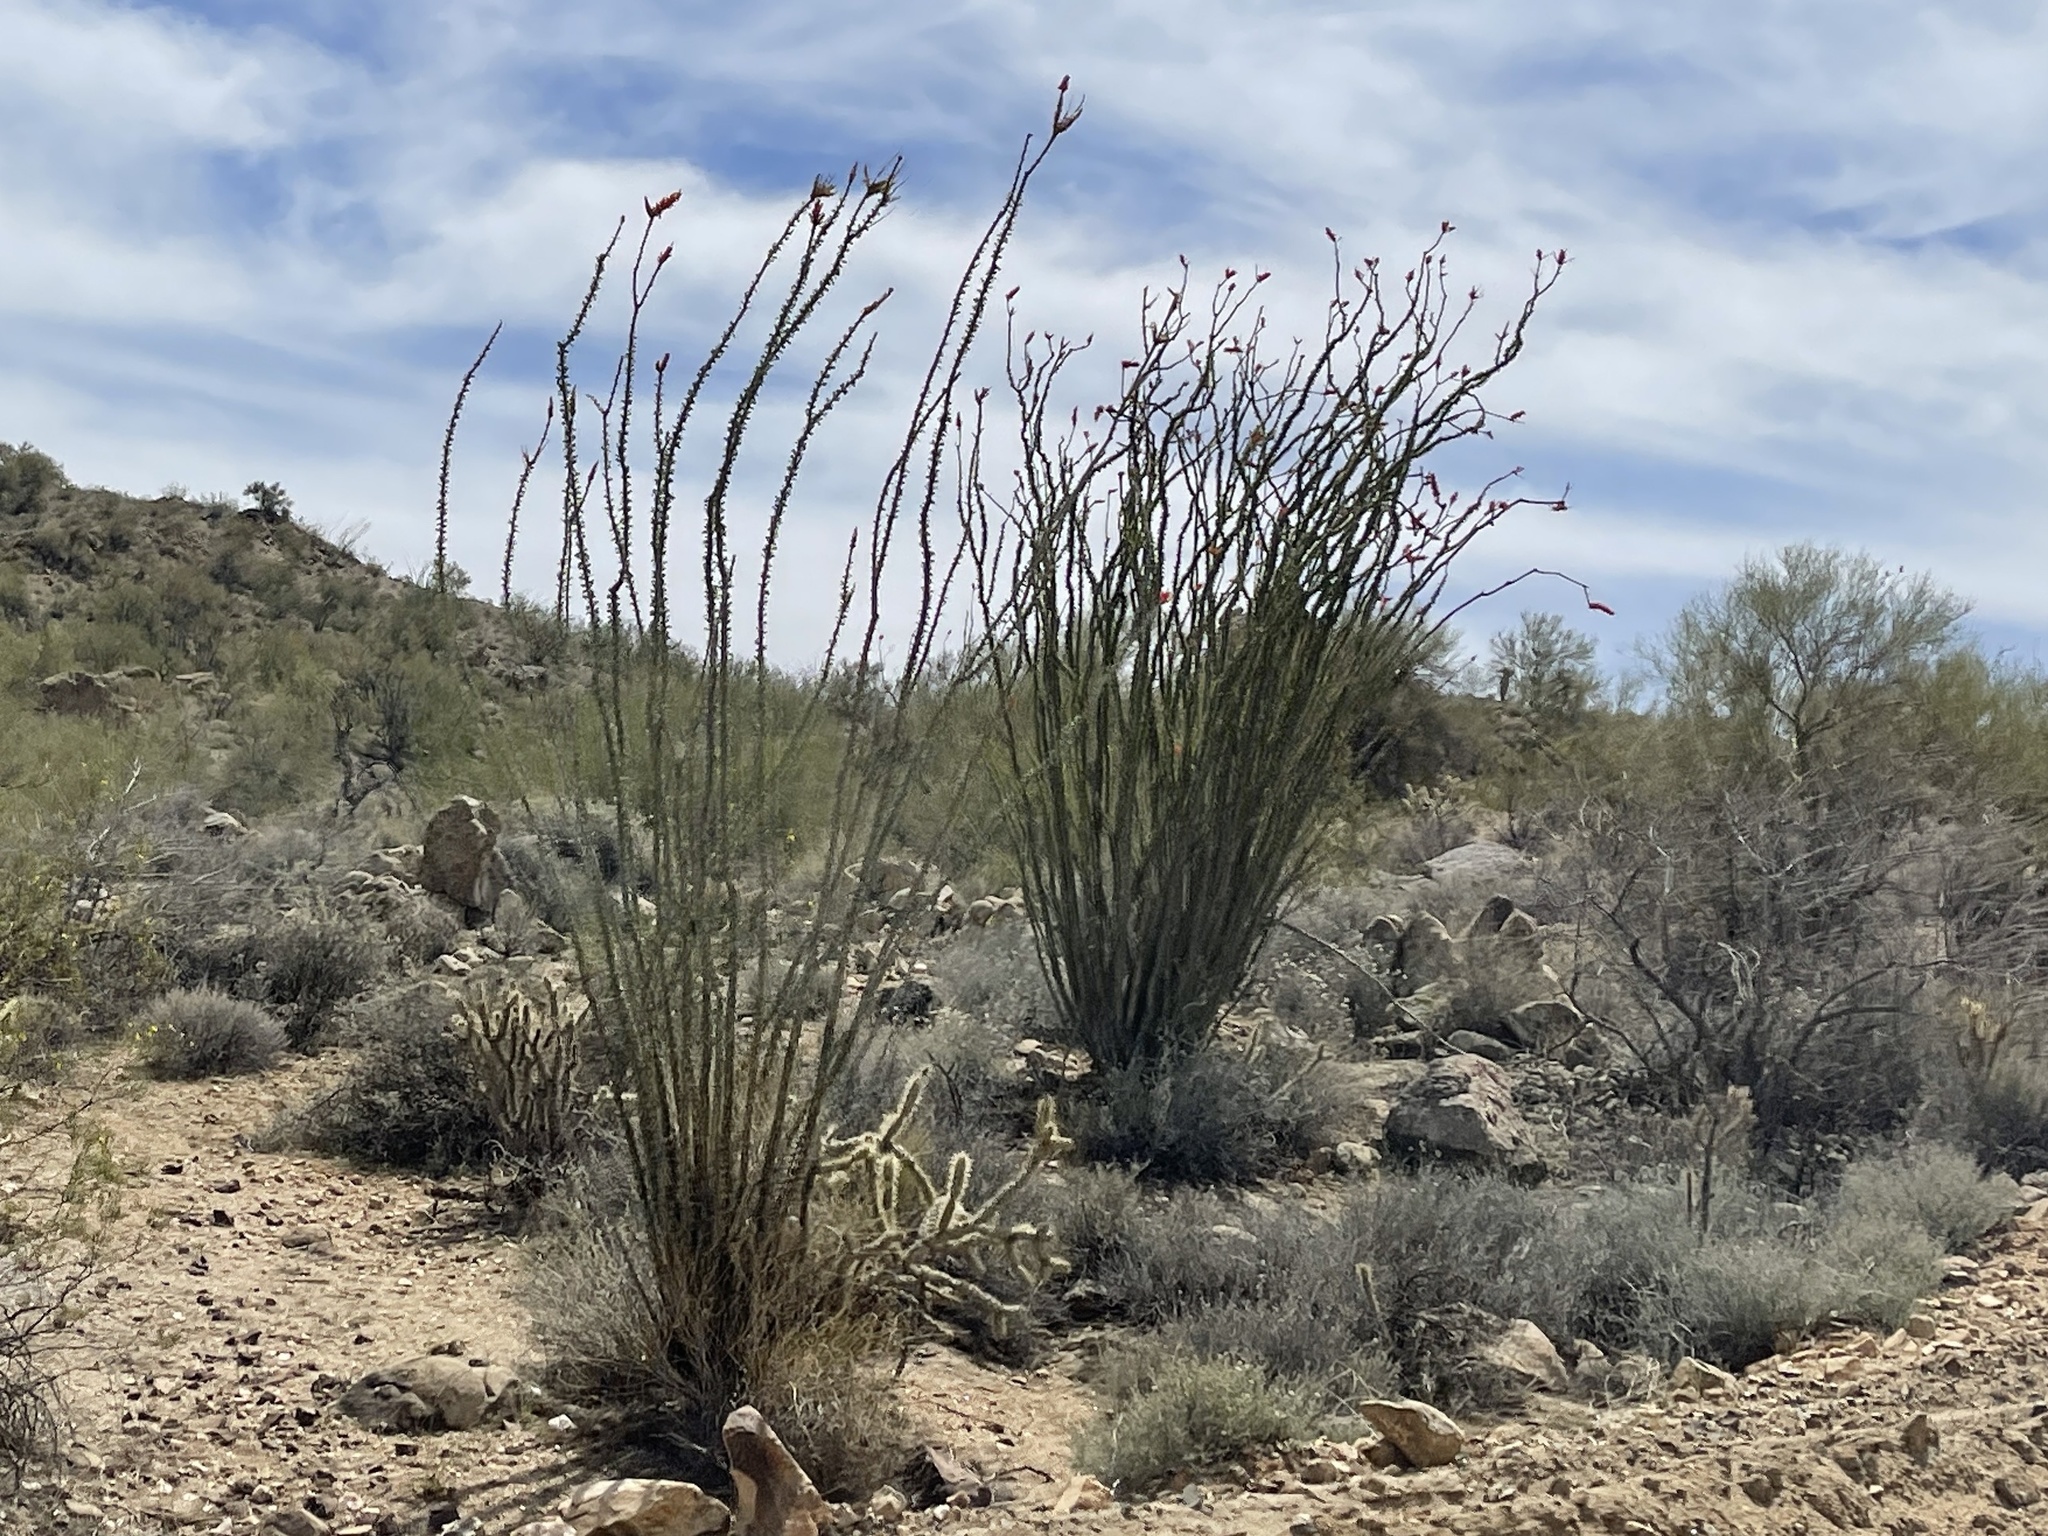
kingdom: Plantae
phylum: Tracheophyta
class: Magnoliopsida
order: Ericales
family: Fouquieriaceae
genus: Fouquieria
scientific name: Fouquieria splendens
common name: Vine-cactus
